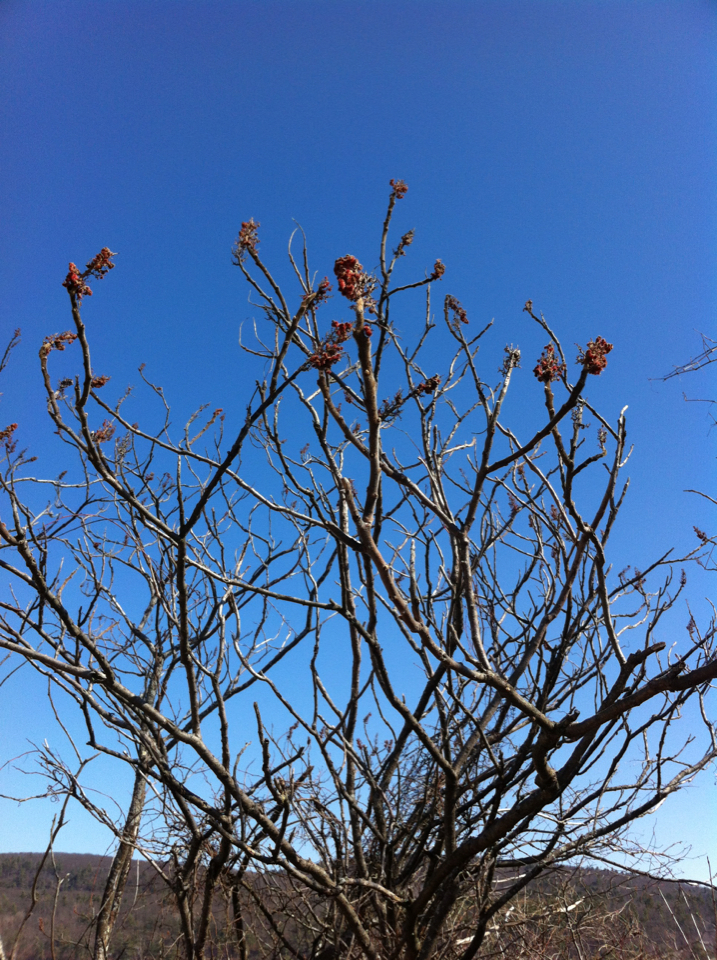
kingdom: Plantae
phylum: Tracheophyta
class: Magnoliopsida
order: Sapindales
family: Anacardiaceae
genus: Rhus
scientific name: Rhus typhina
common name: Staghorn sumac
